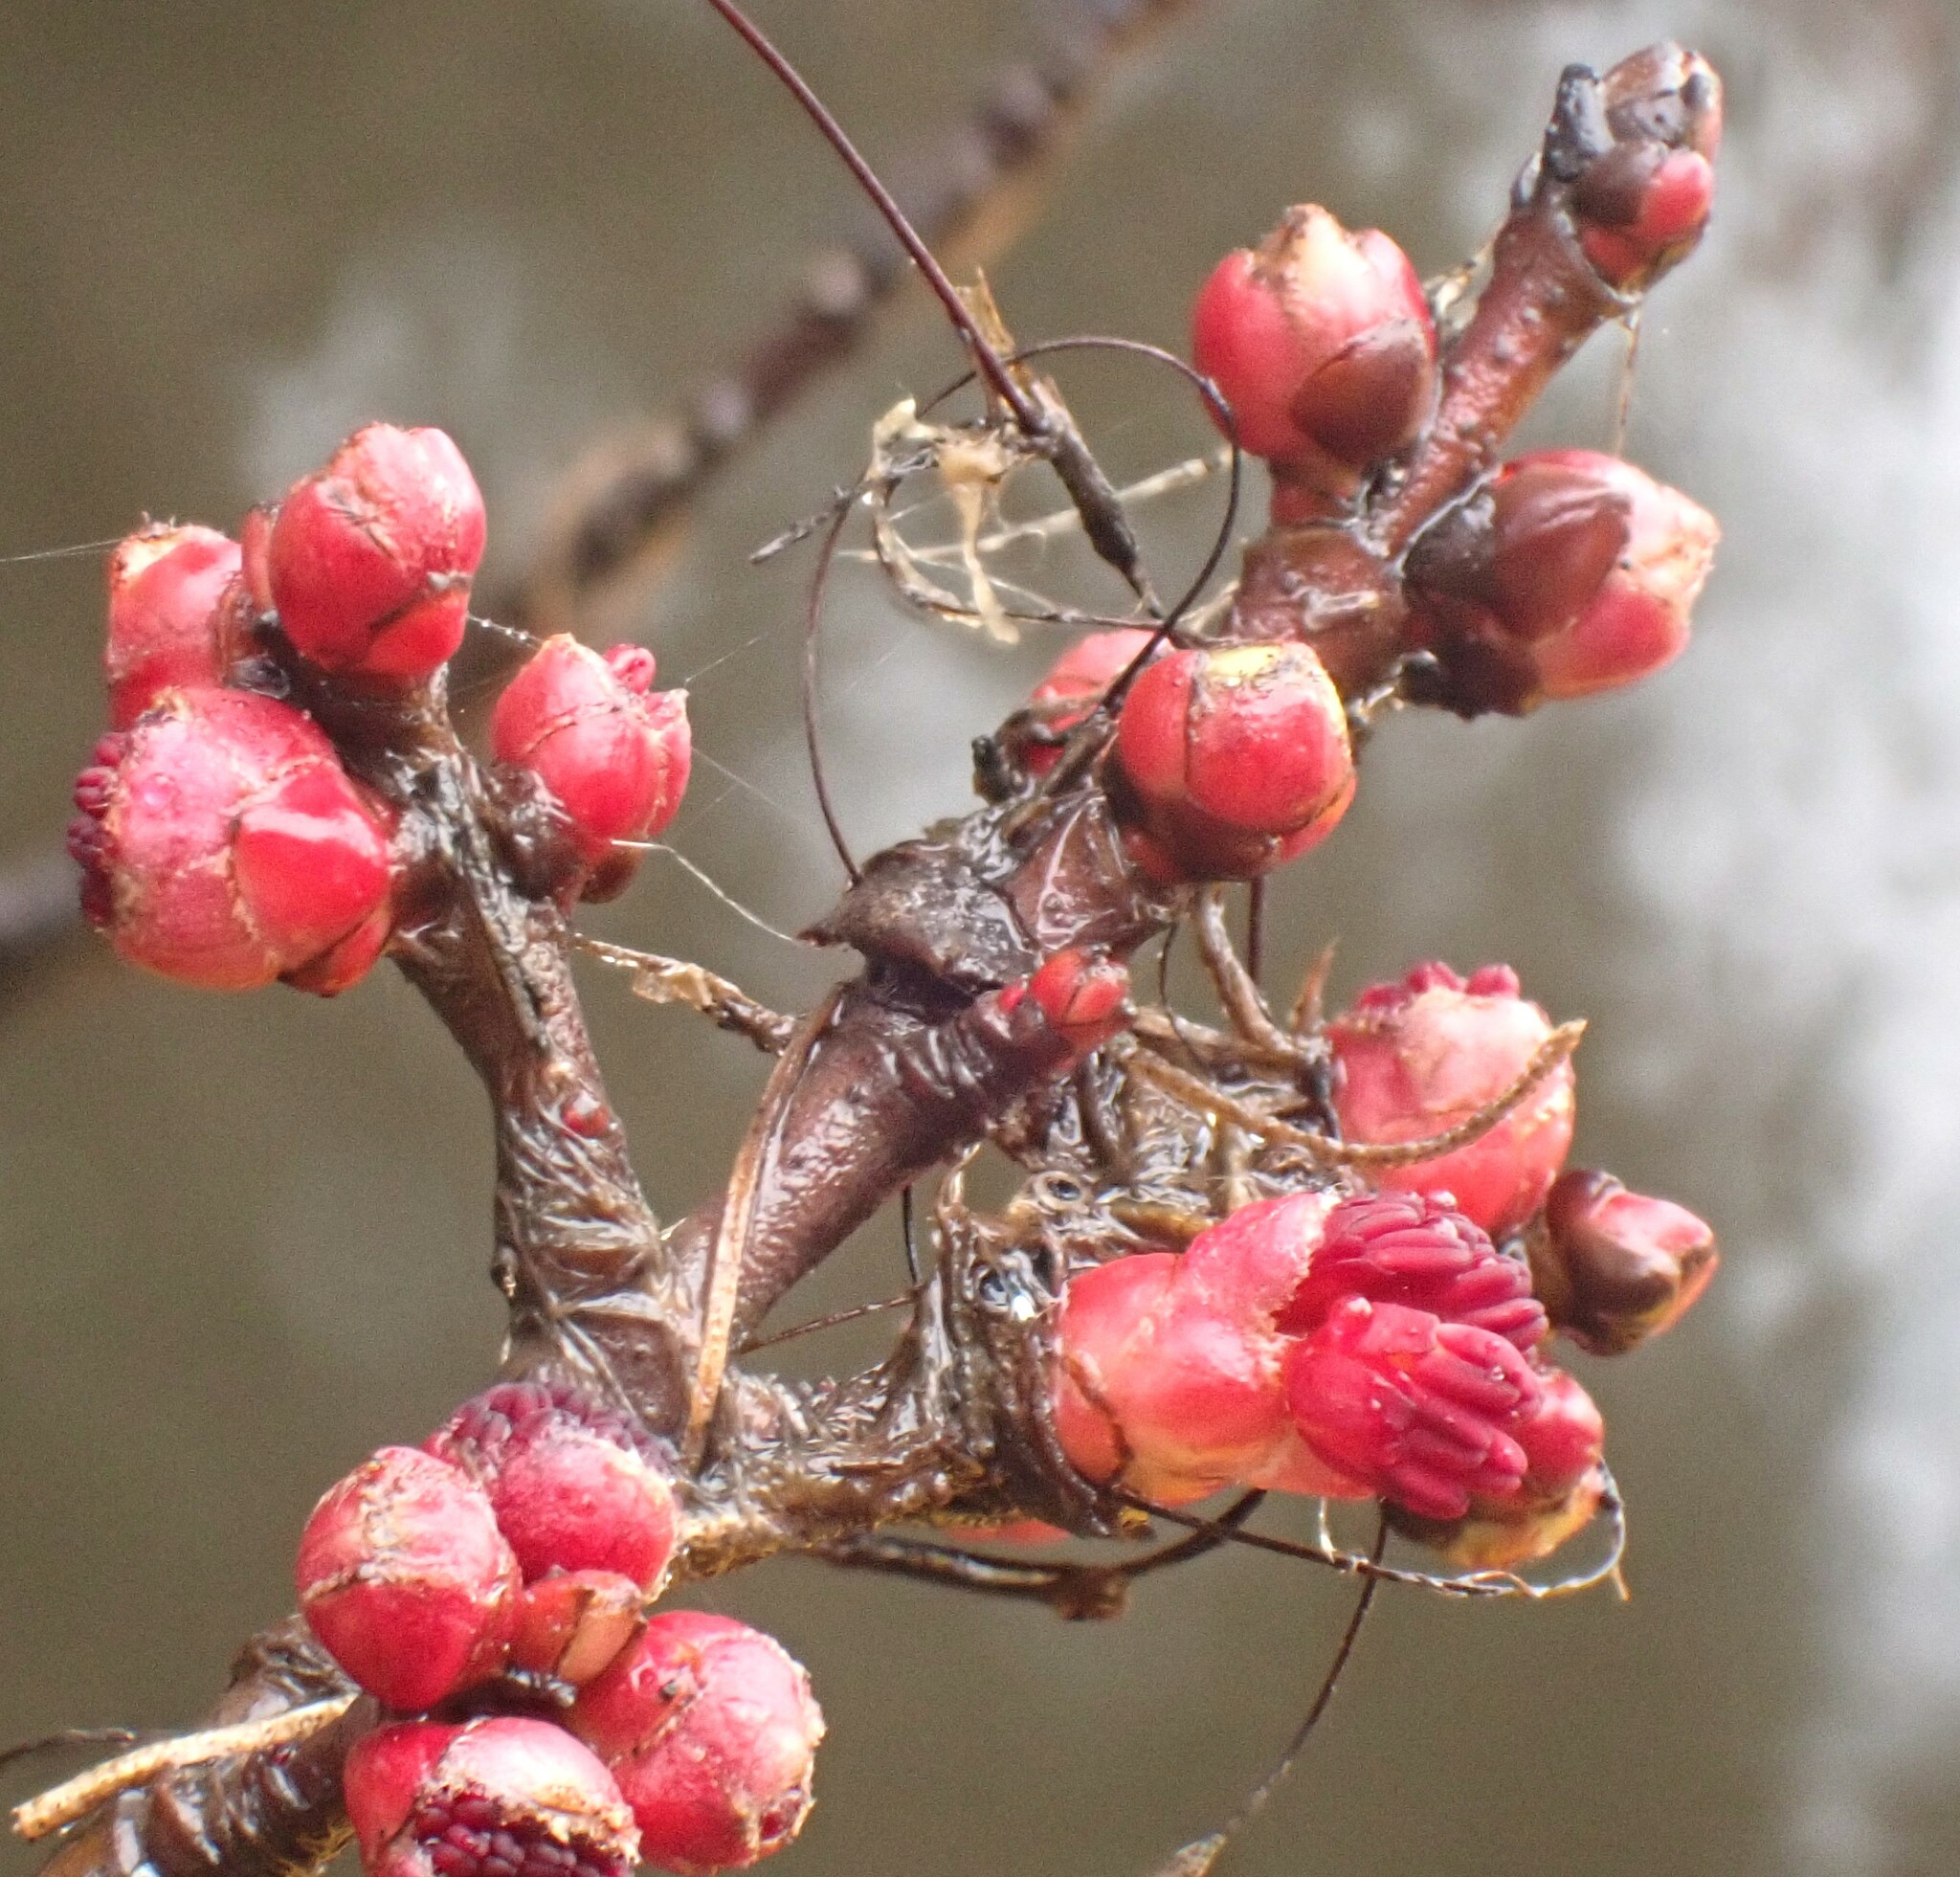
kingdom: Plantae
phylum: Tracheophyta
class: Magnoliopsida
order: Sapindales
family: Sapindaceae
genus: Acer
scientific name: Acer rubrum
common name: Red maple
